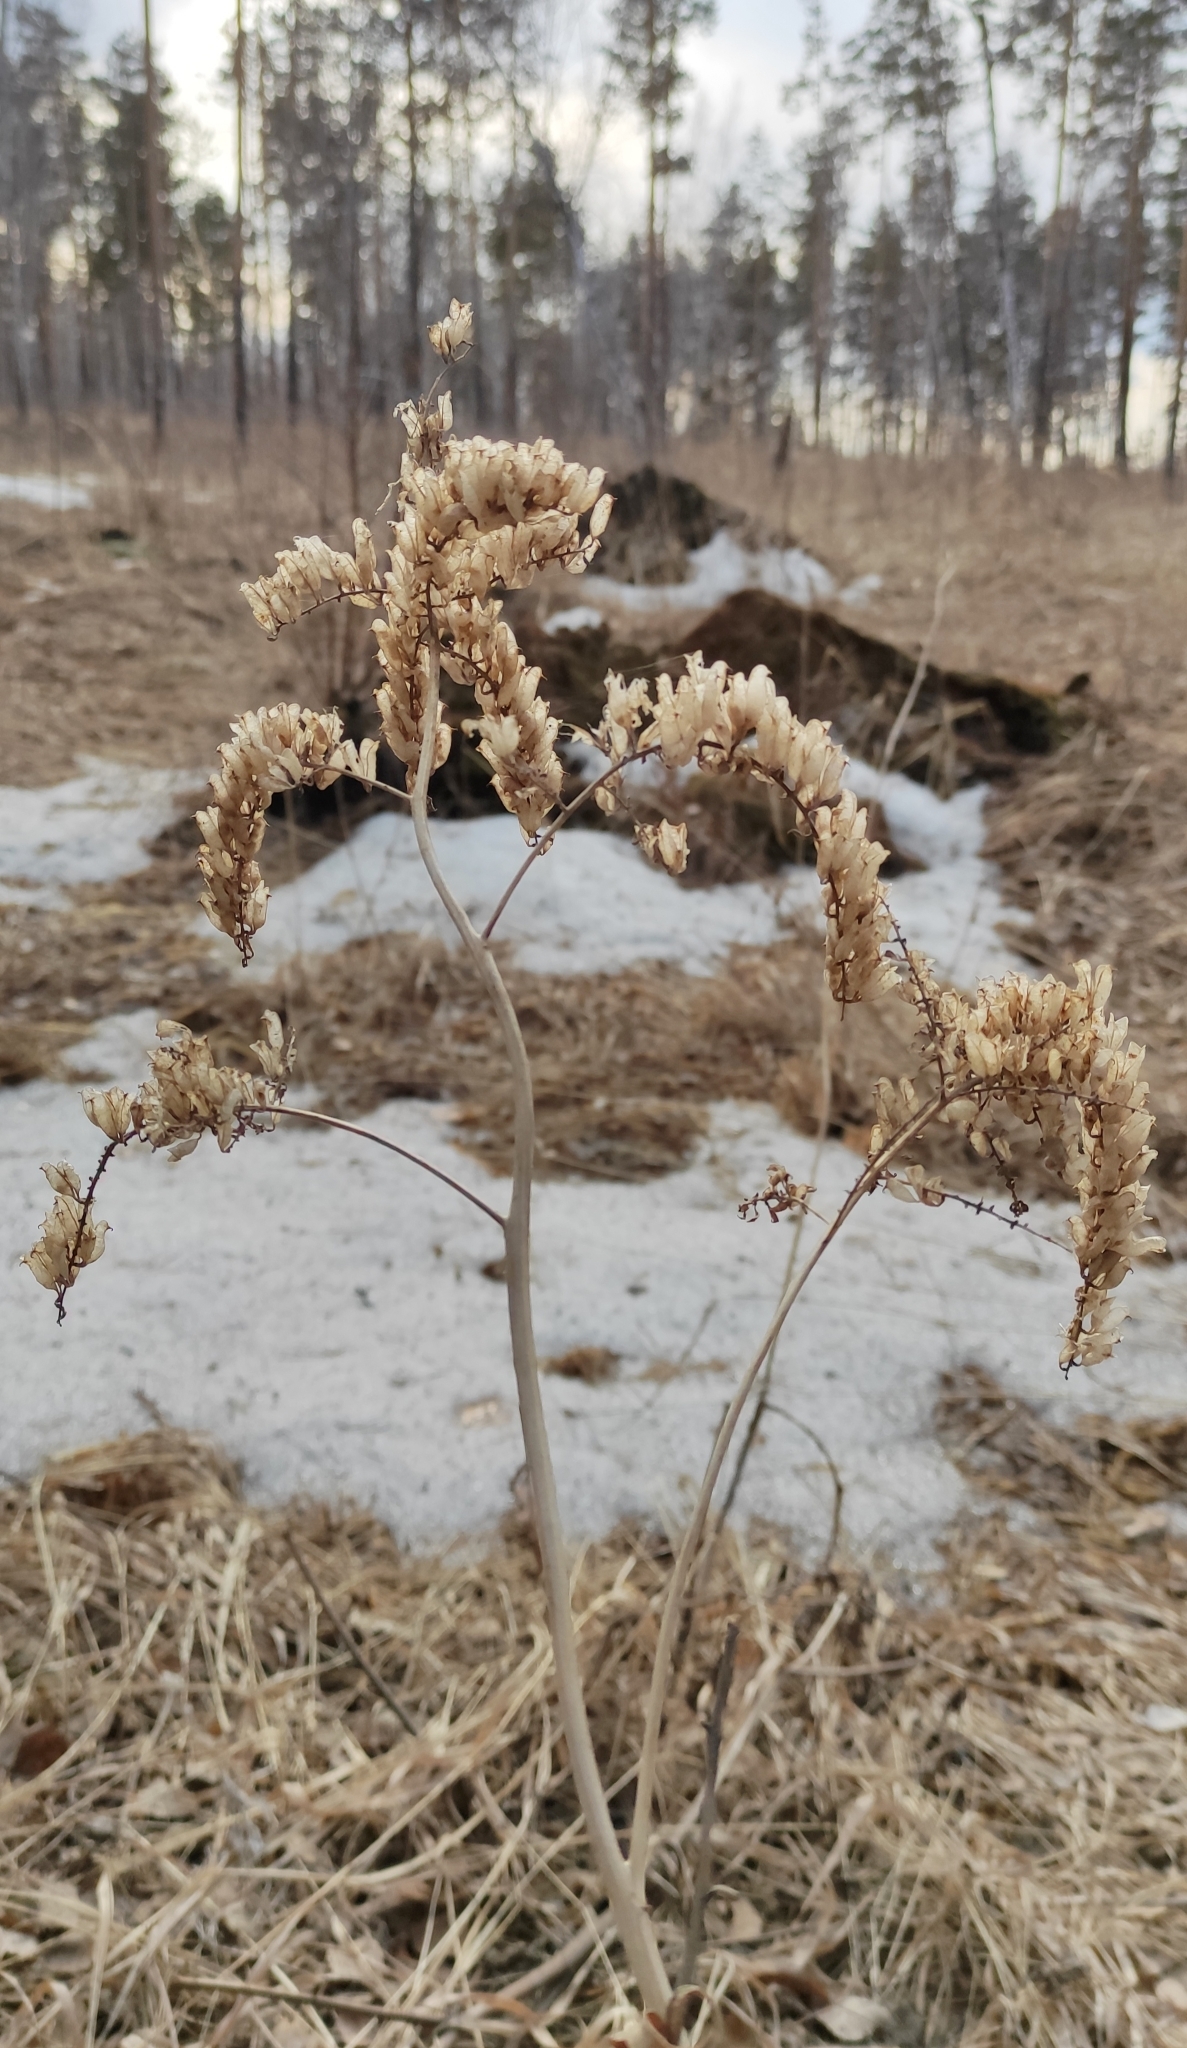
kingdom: Plantae
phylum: Tracheophyta
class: Magnoliopsida
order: Ranunculales
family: Ranunculaceae
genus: Actaea
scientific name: Actaea cimicifuga
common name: Chinese cimicifuga
